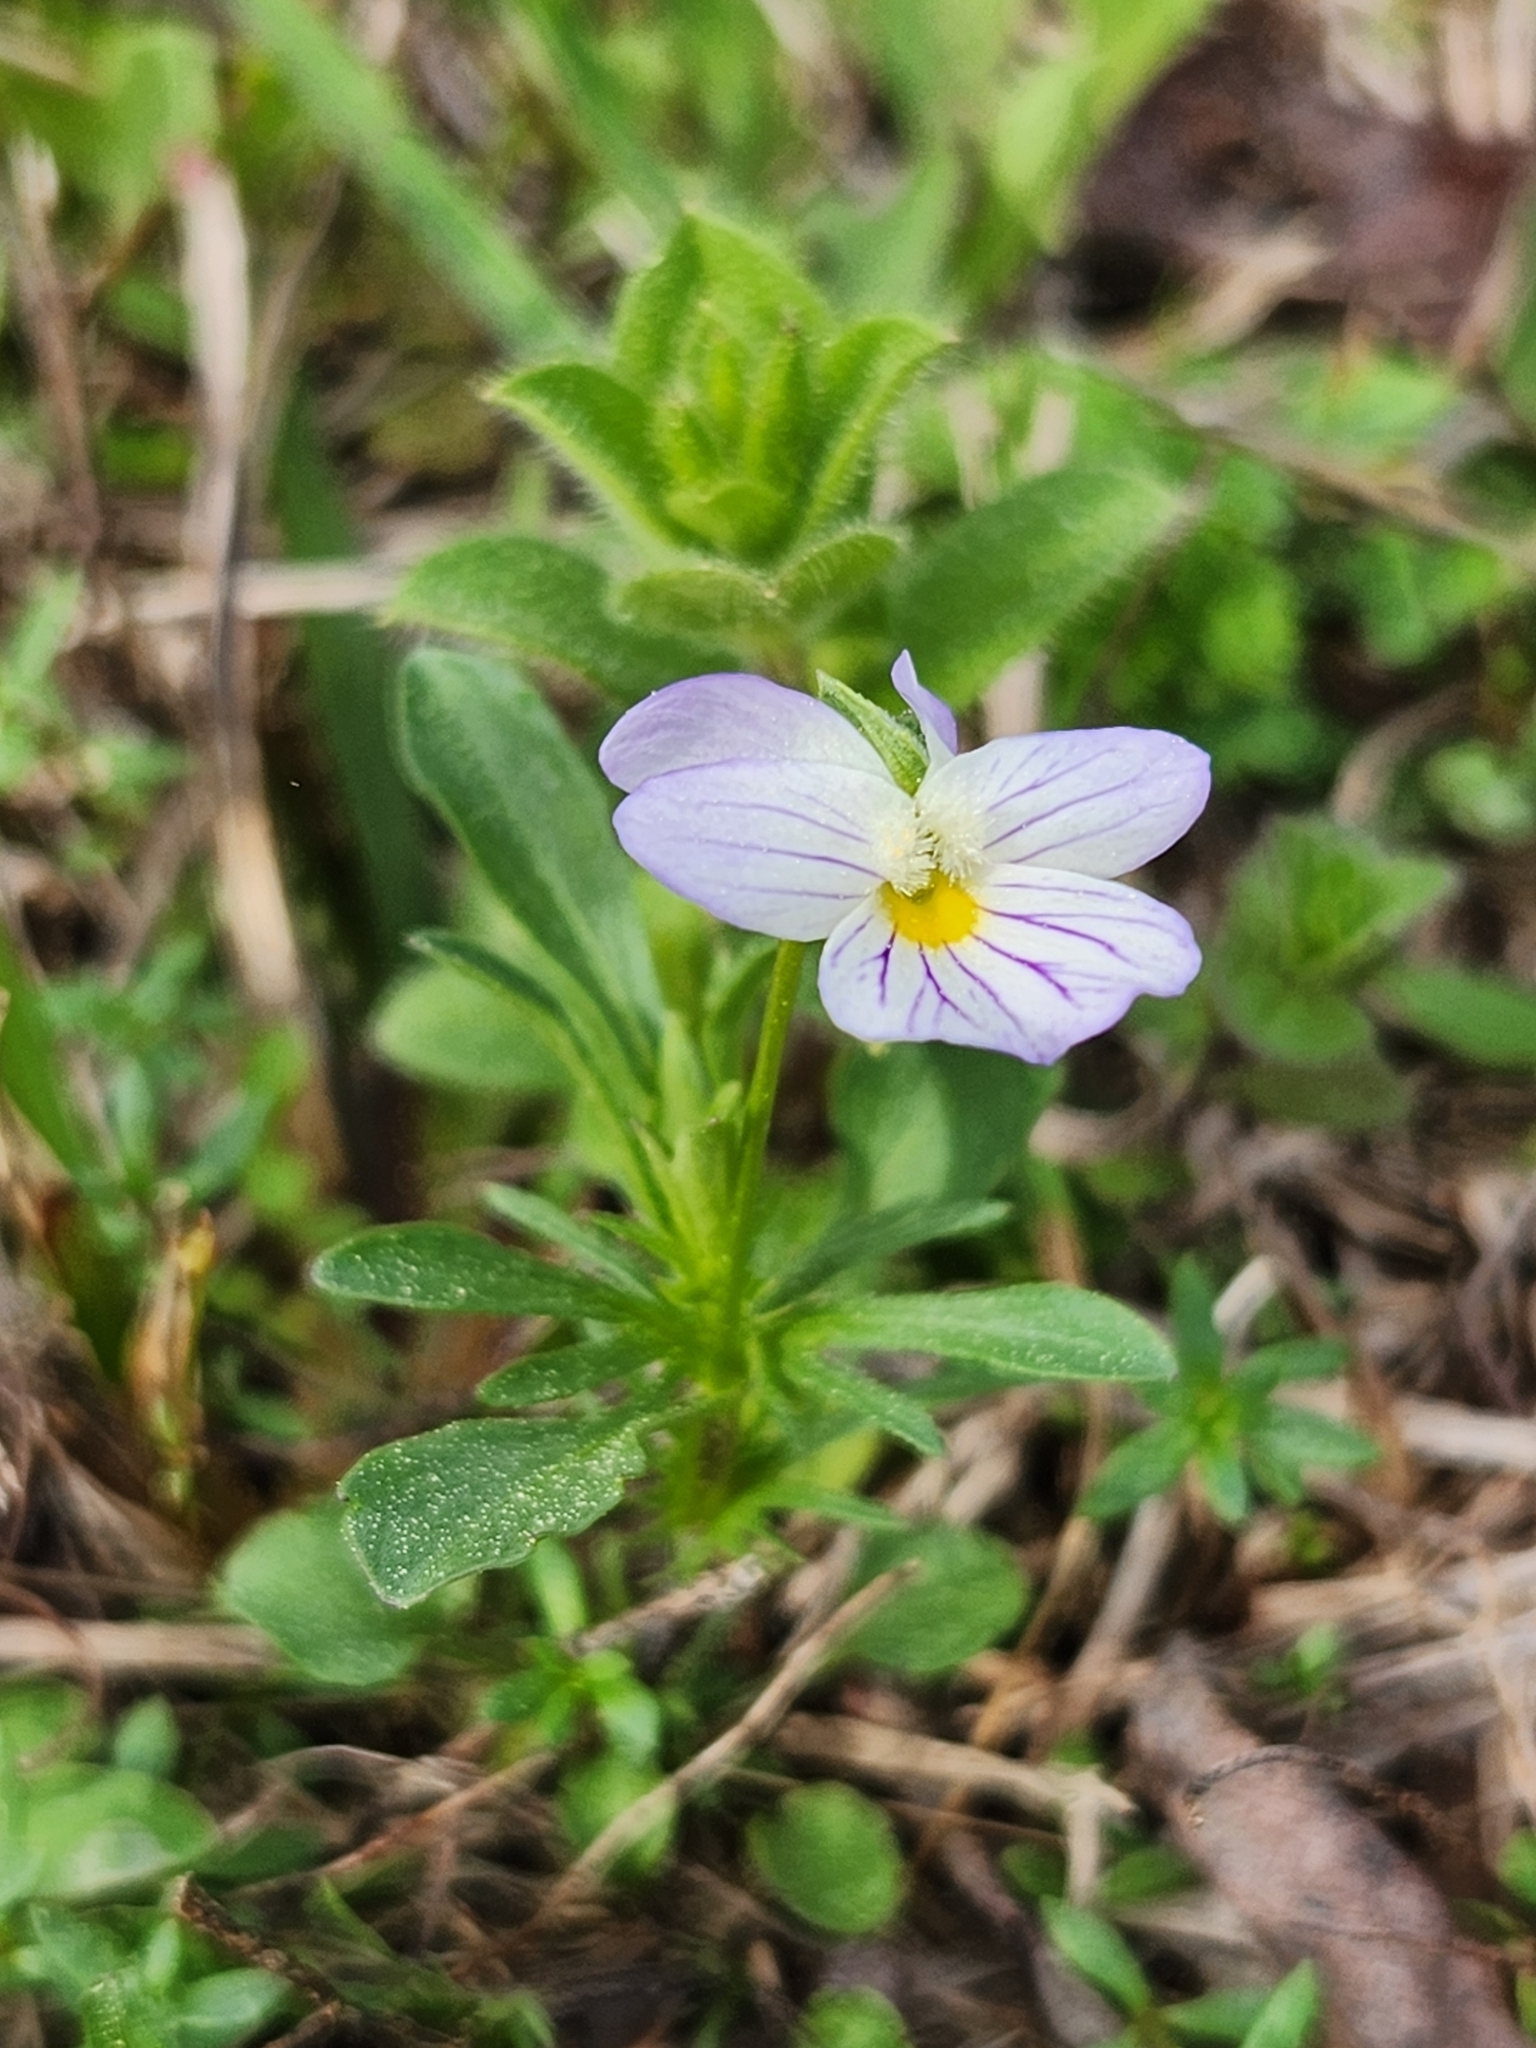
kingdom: Plantae
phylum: Tracheophyta
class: Magnoliopsida
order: Malpighiales
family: Violaceae
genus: Viola
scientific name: Viola rafinesquei
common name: American field pansy
